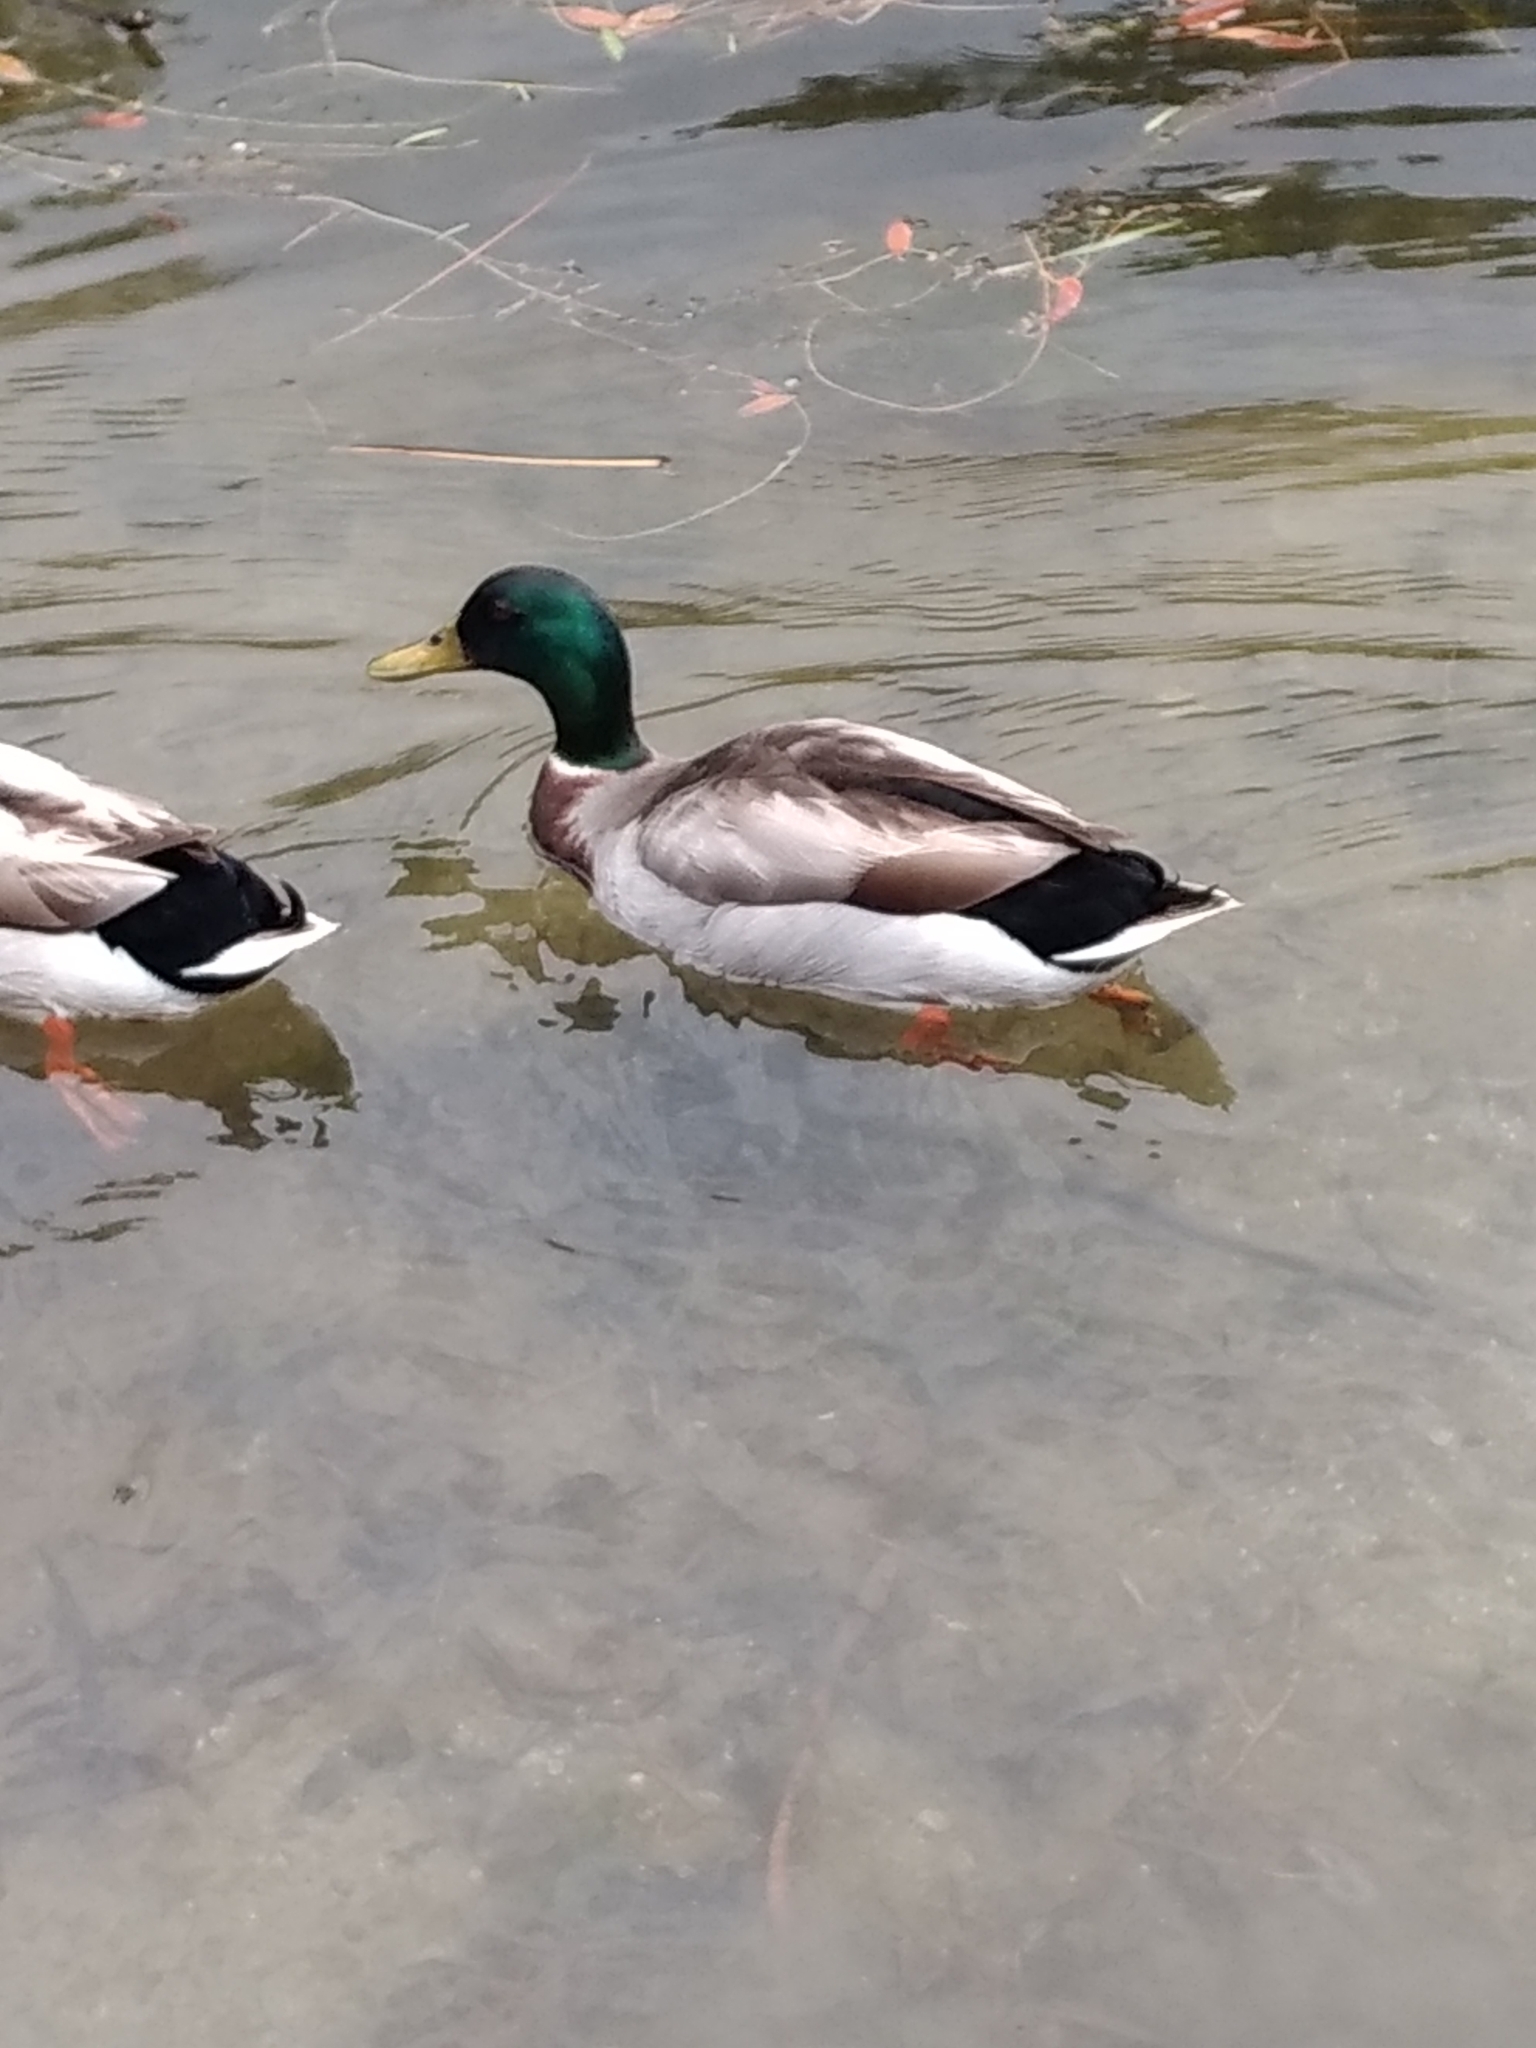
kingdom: Animalia
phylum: Chordata
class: Aves
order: Anseriformes
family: Anatidae
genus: Anas
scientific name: Anas platyrhynchos
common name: Mallard
